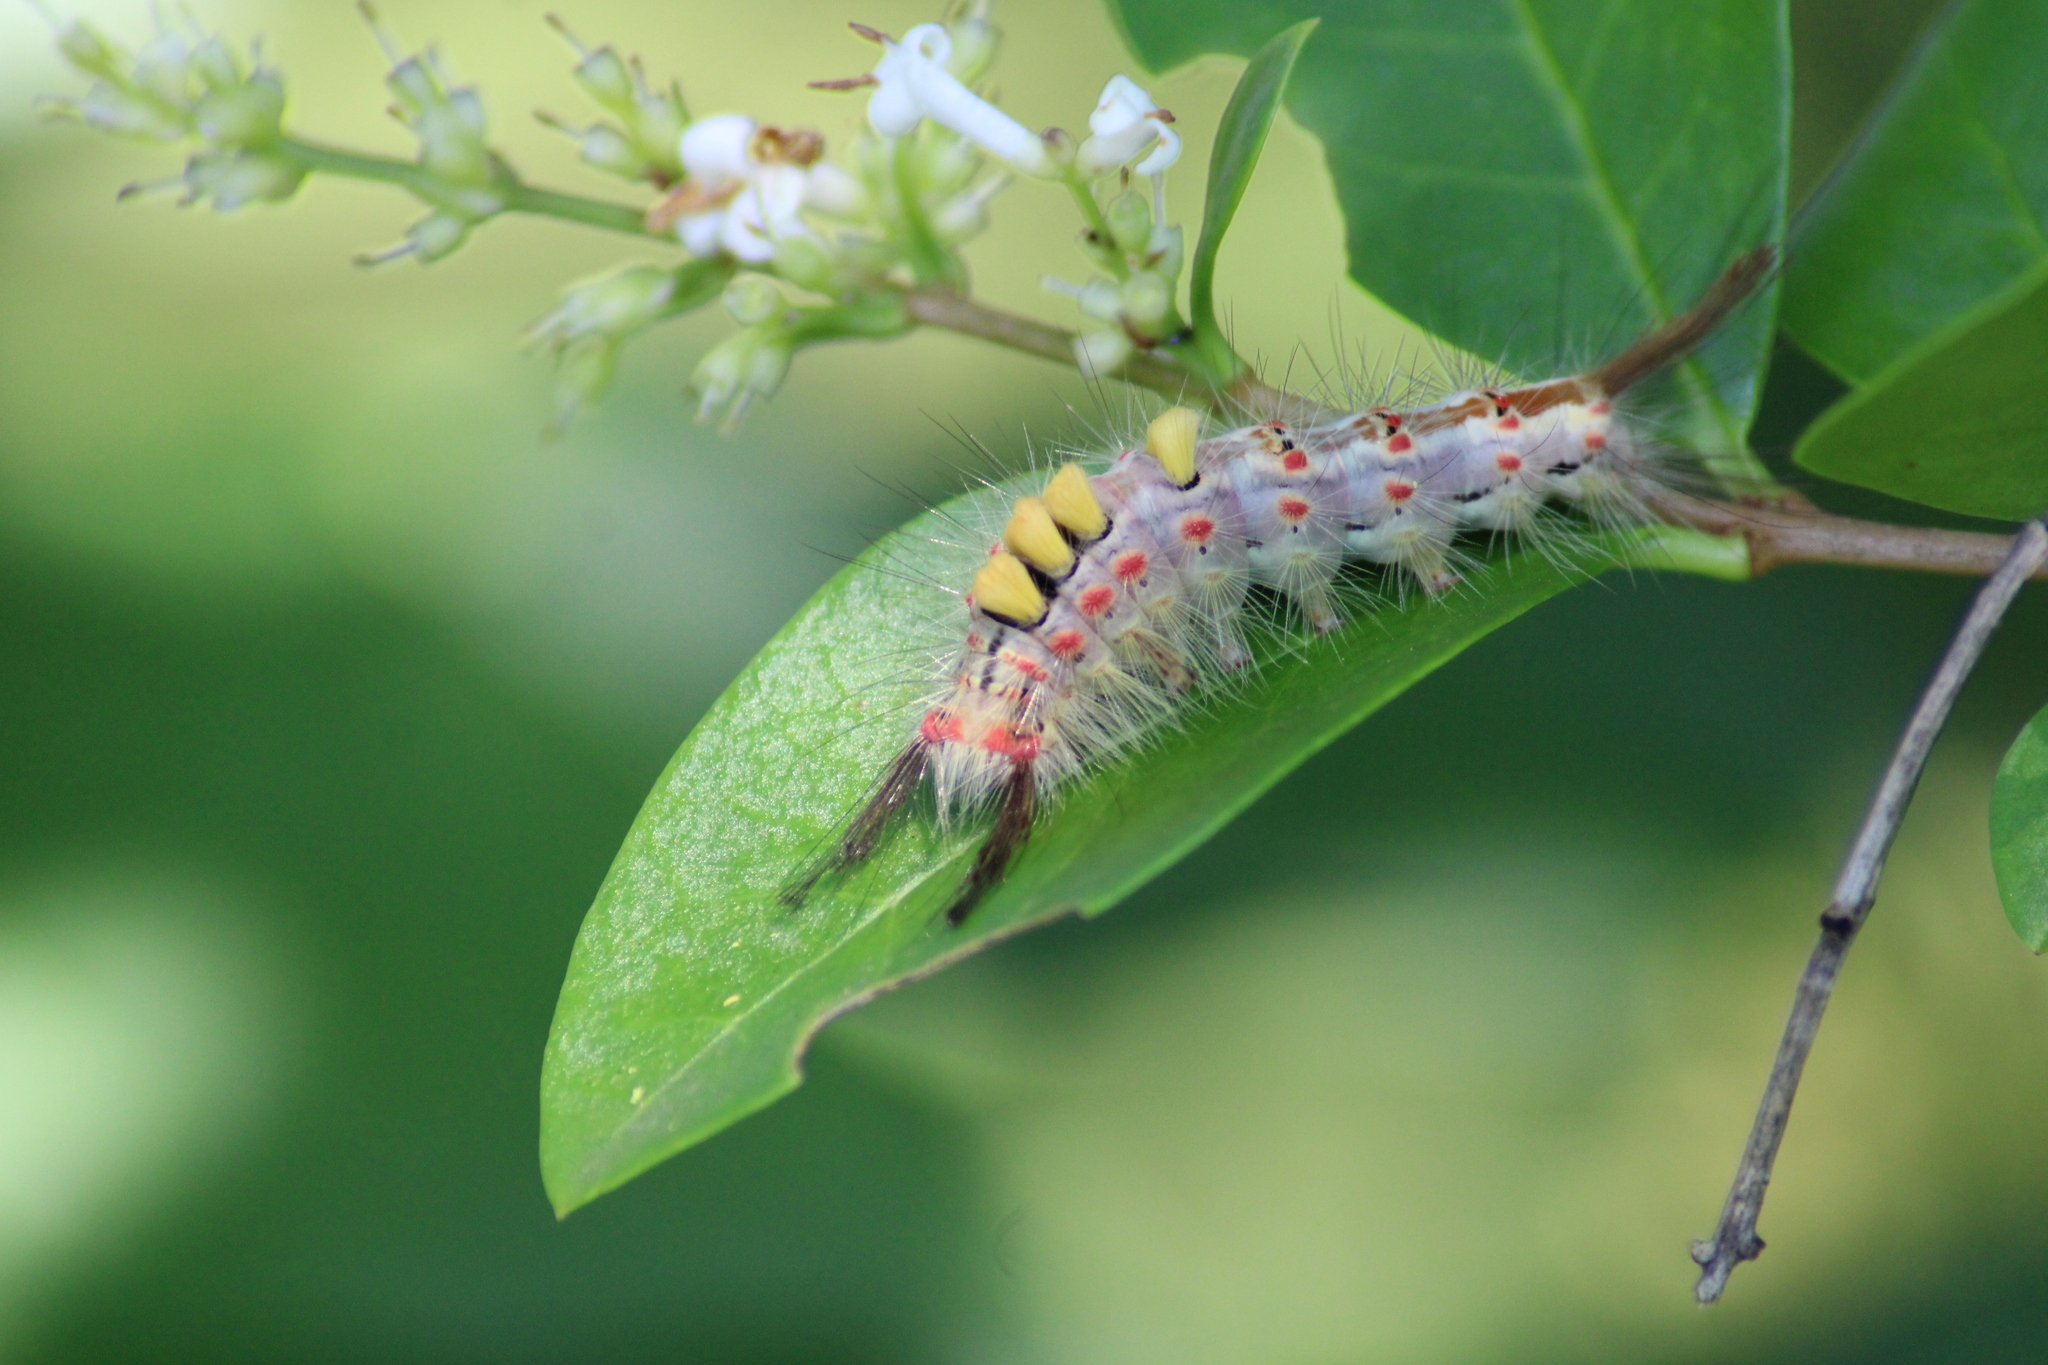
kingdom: Animalia
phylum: Arthropoda
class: Insecta
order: Lepidoptera
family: Erebidae
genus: Orgyia
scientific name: Orgyia antiqua
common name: Vapourer
